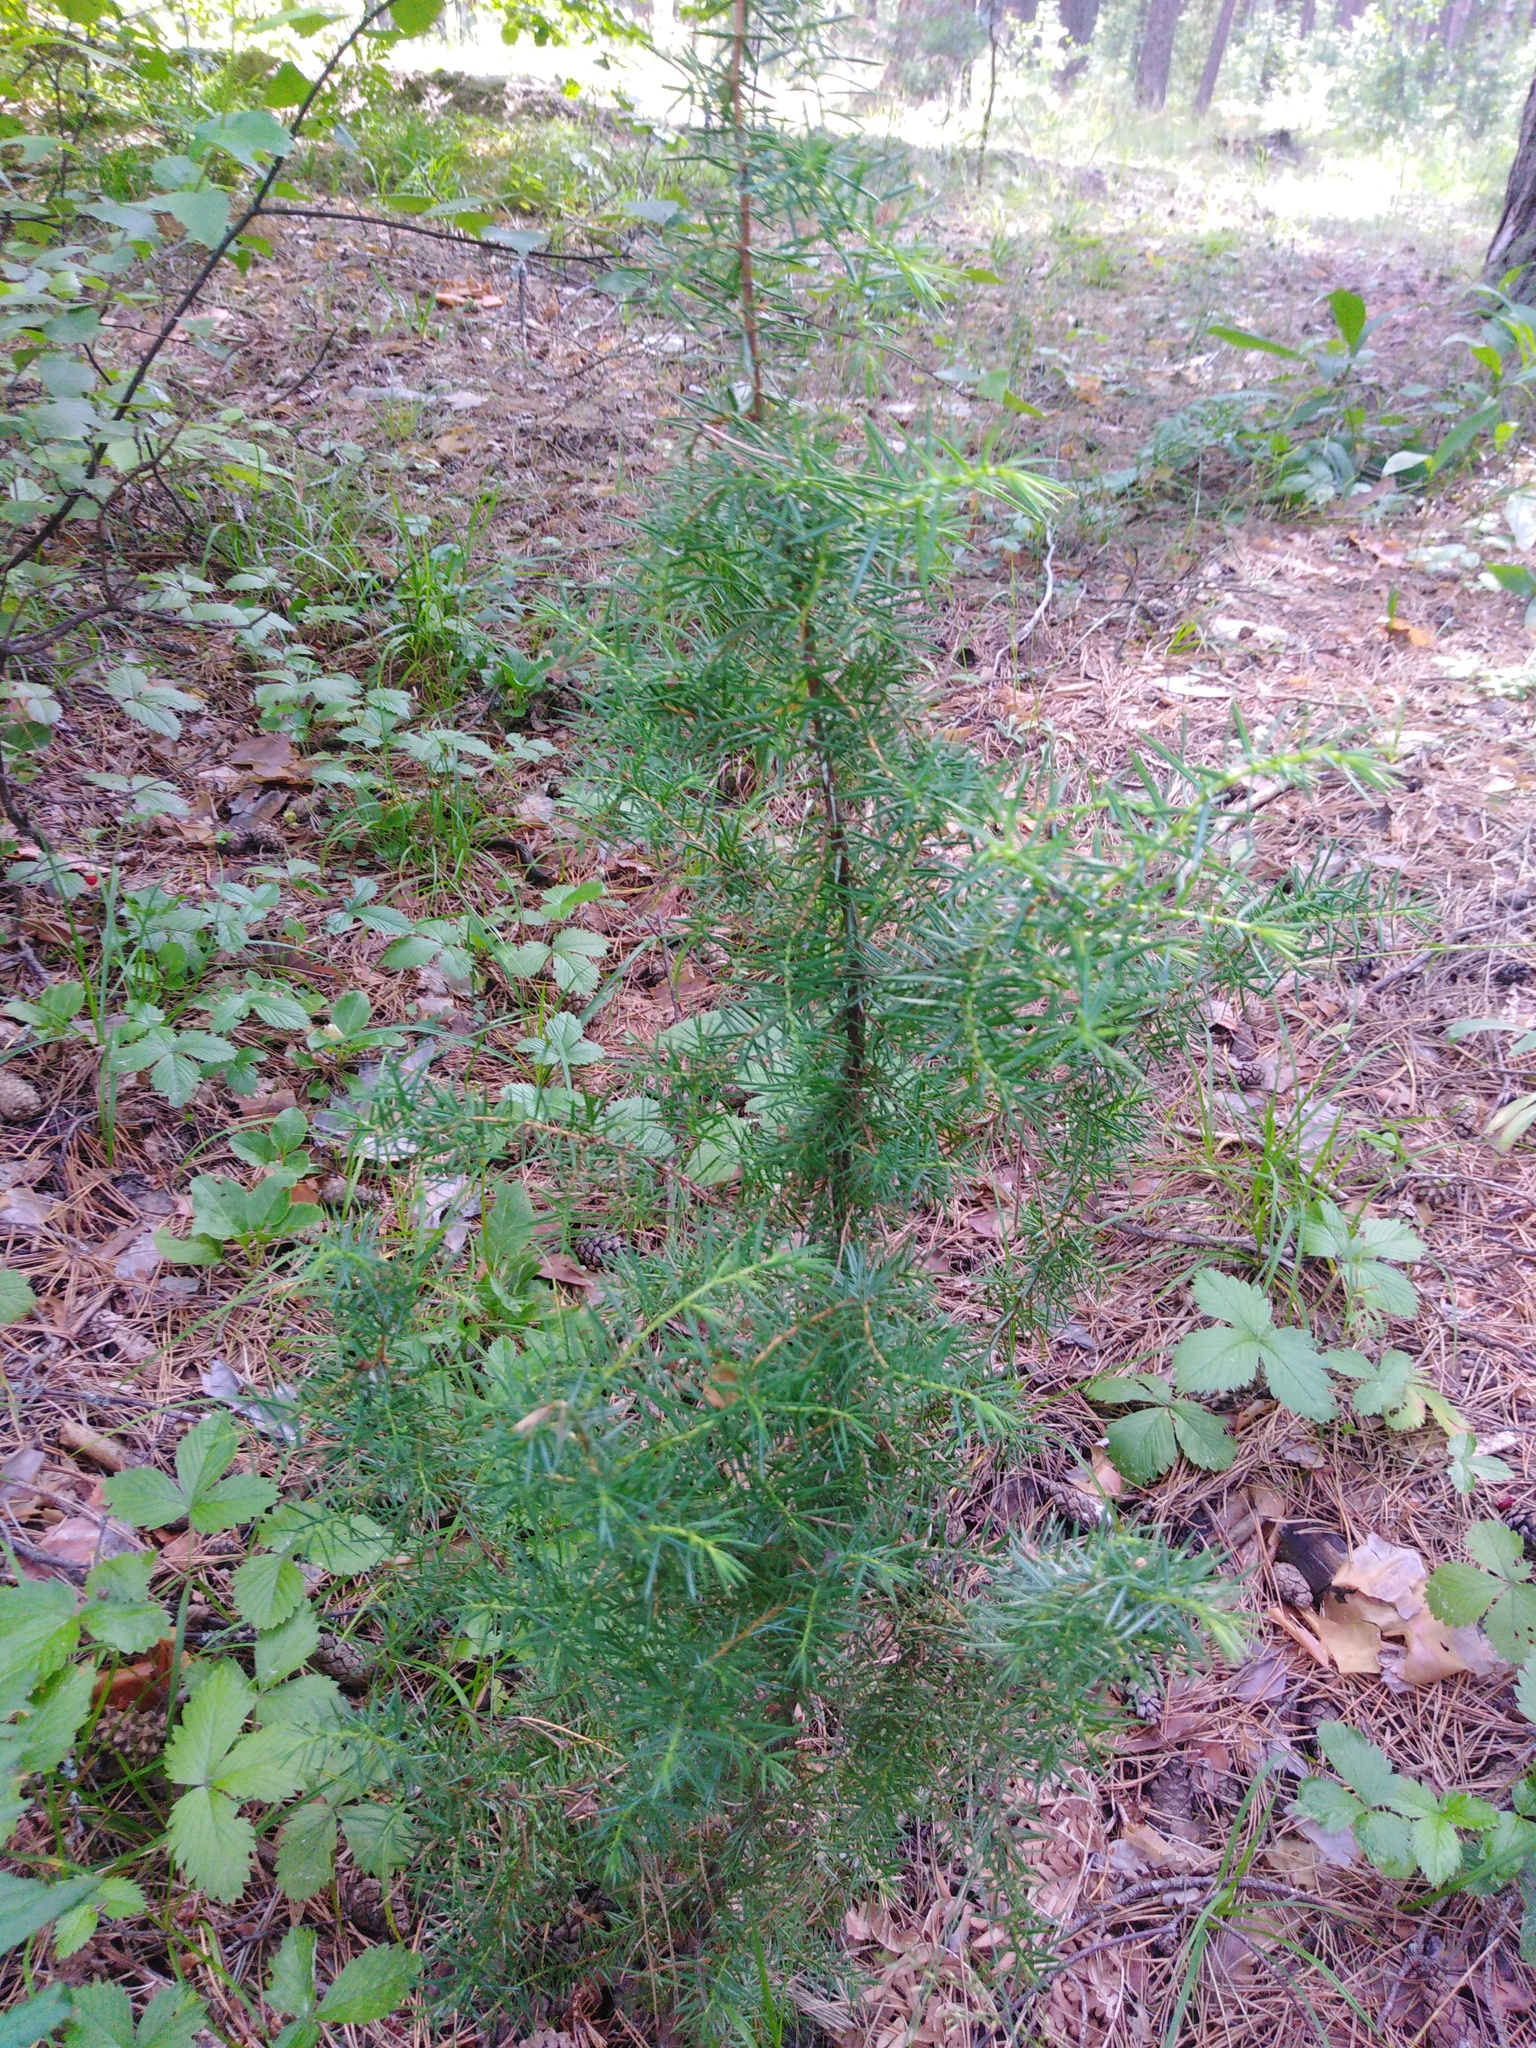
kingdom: Plantae
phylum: Tracheophyta
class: Pinopsida
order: Pinales
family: Cupressaceae
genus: Juniperus
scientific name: Juniperus communis
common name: Common juniper
